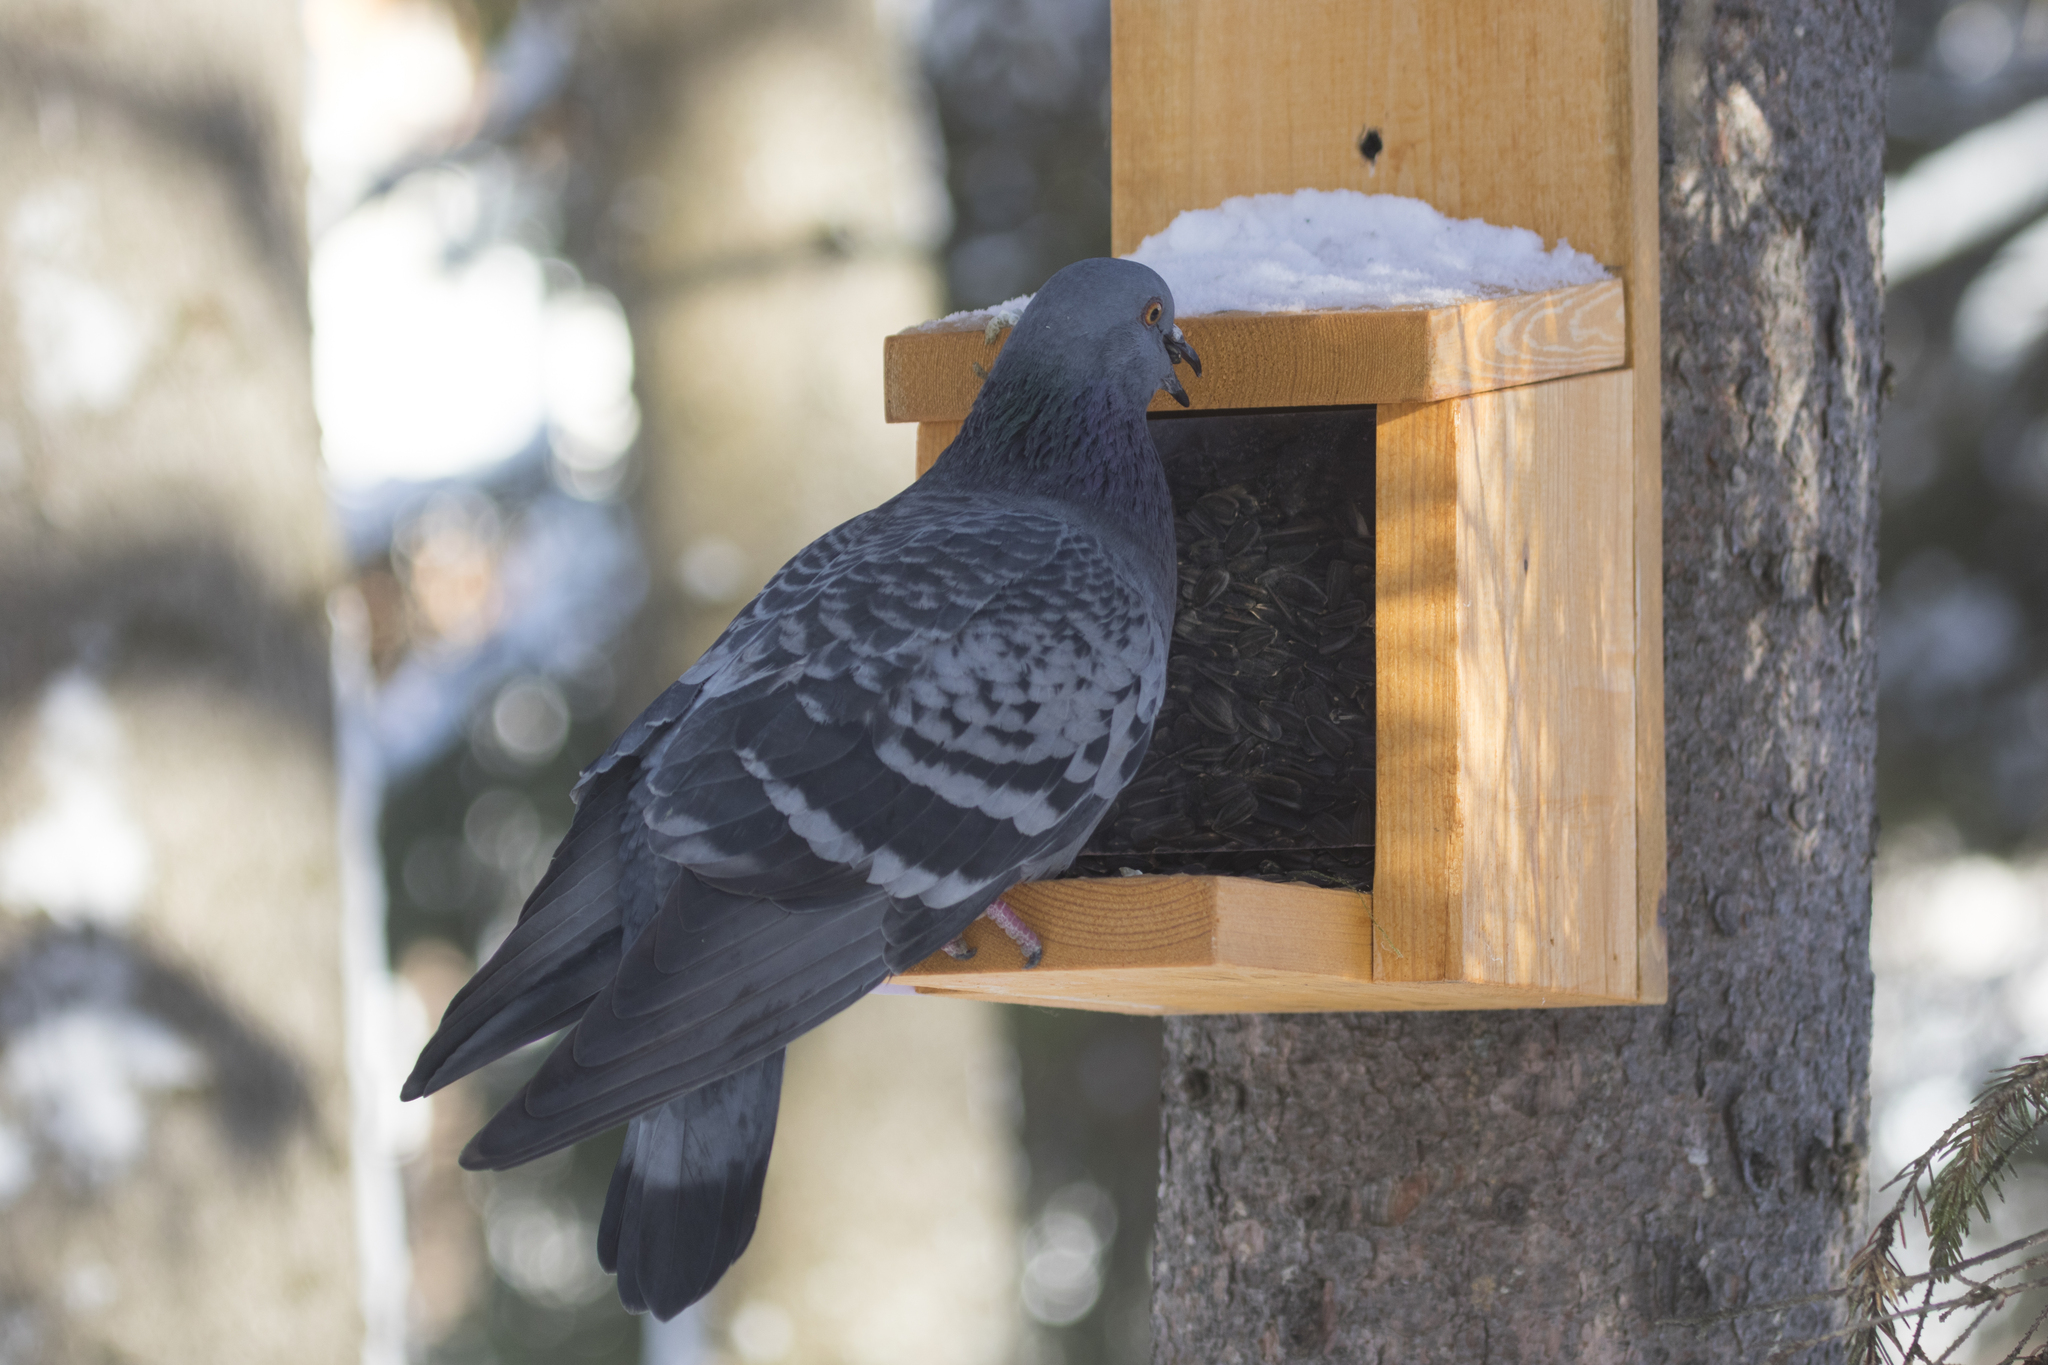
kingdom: Animalia
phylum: Chordata
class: Aves
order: Columbiformes
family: Columbidae
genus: Columba
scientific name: Columba livia
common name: Rock pigeon
